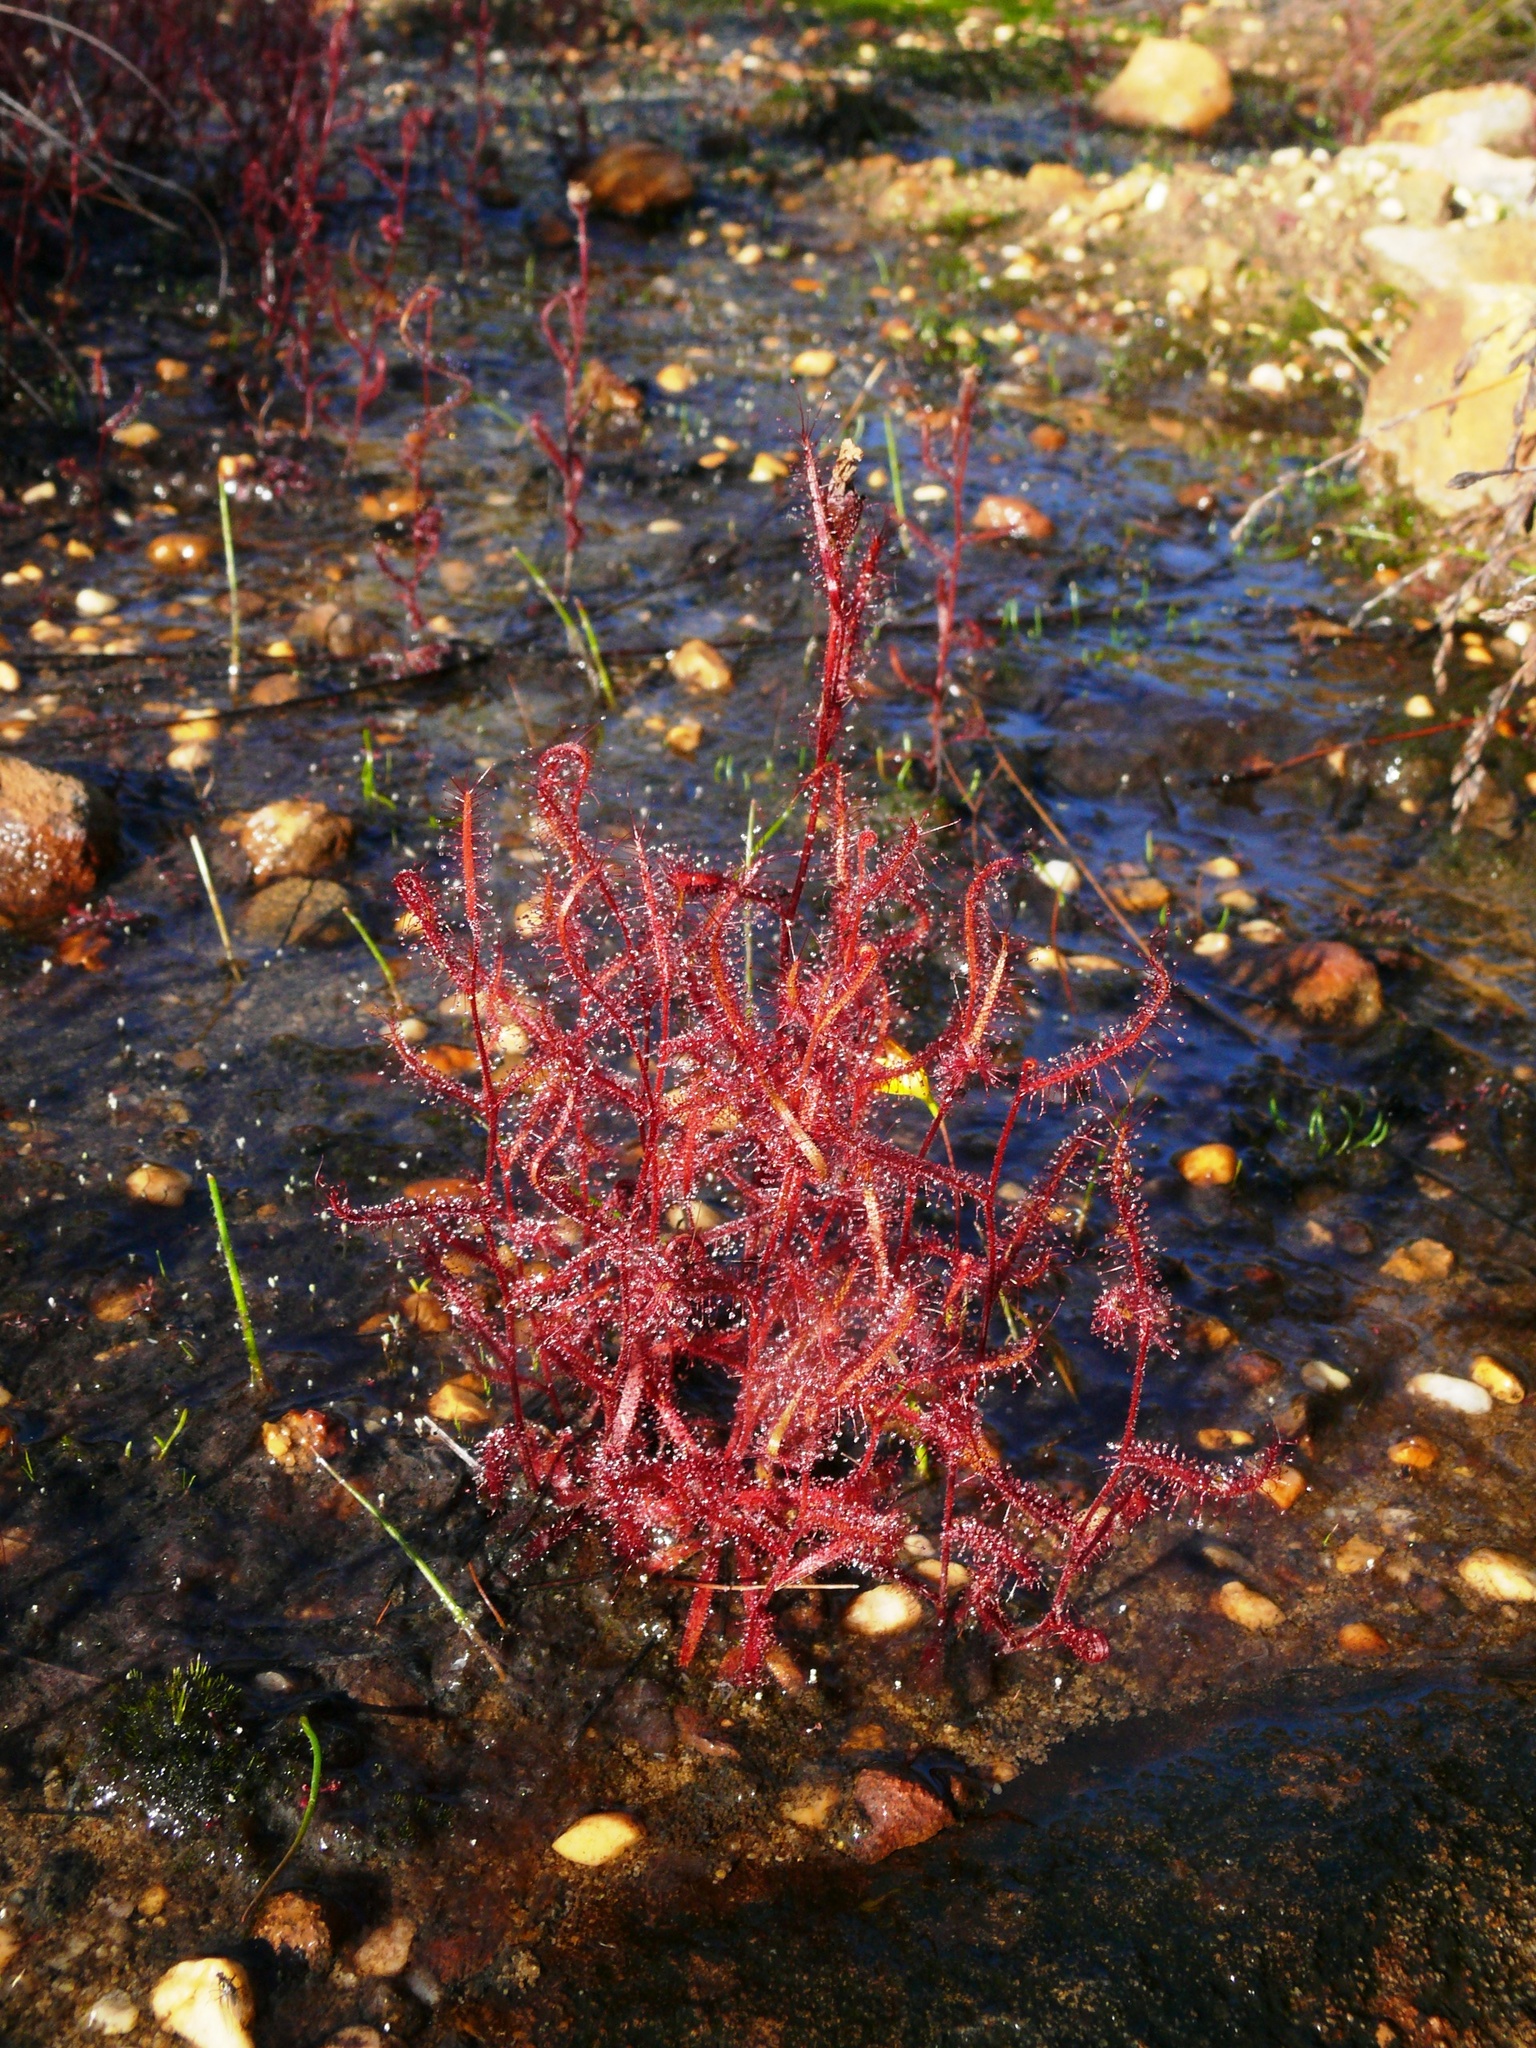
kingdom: Plantae
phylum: Tracheophyta
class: Magnoliopsida
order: Caryophyllales
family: Droseraceae
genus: Drosera
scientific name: Drosera cistiflora
